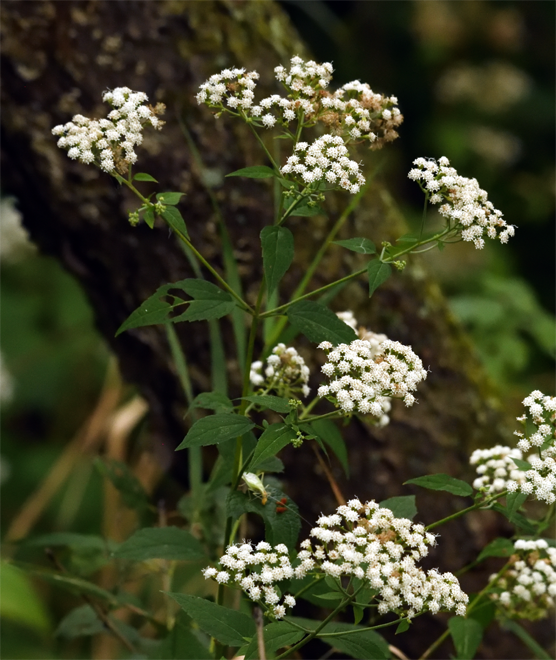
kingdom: Plantae
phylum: Tracheophyta
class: Magnoliopsida
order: Asterales
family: Asteraceae
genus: Ageratina
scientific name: Ageratina altissima
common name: White snakeroot
